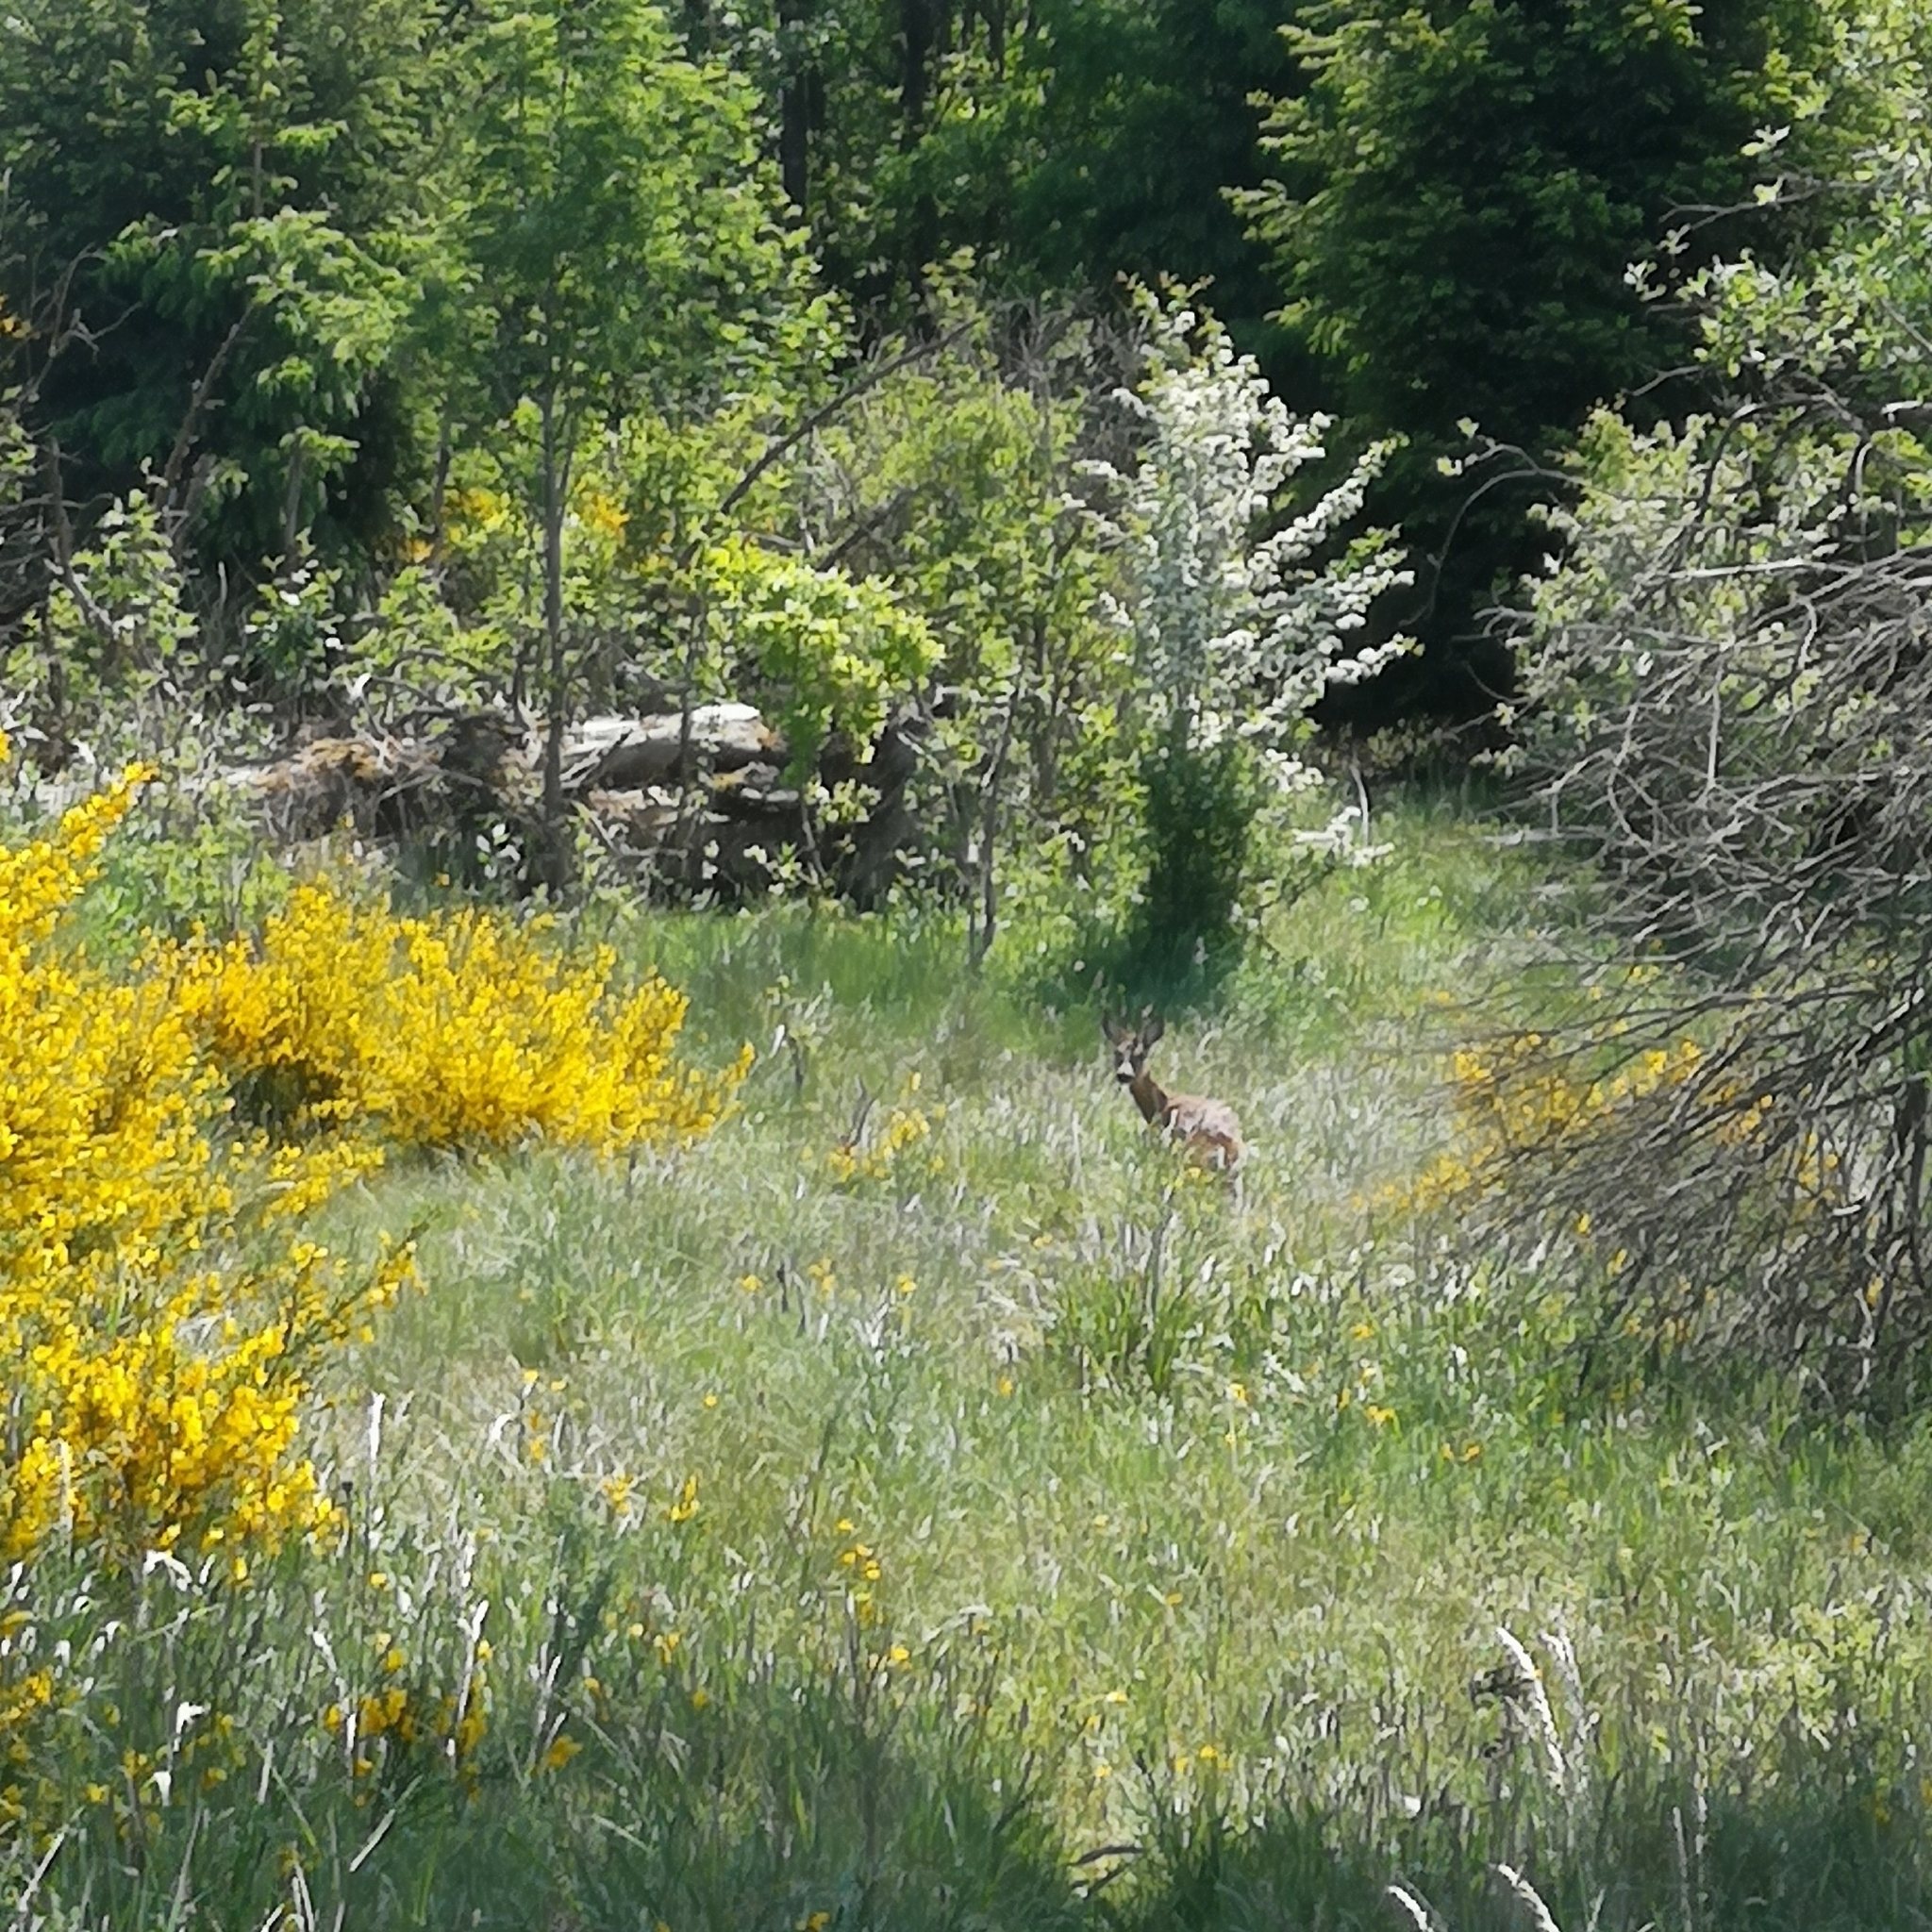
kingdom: Animalia
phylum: Chordata
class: Mammalia
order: Artiodactyla
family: Cervidae
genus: Capreolus
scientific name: Capreolus capreolus
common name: Western roe deer
